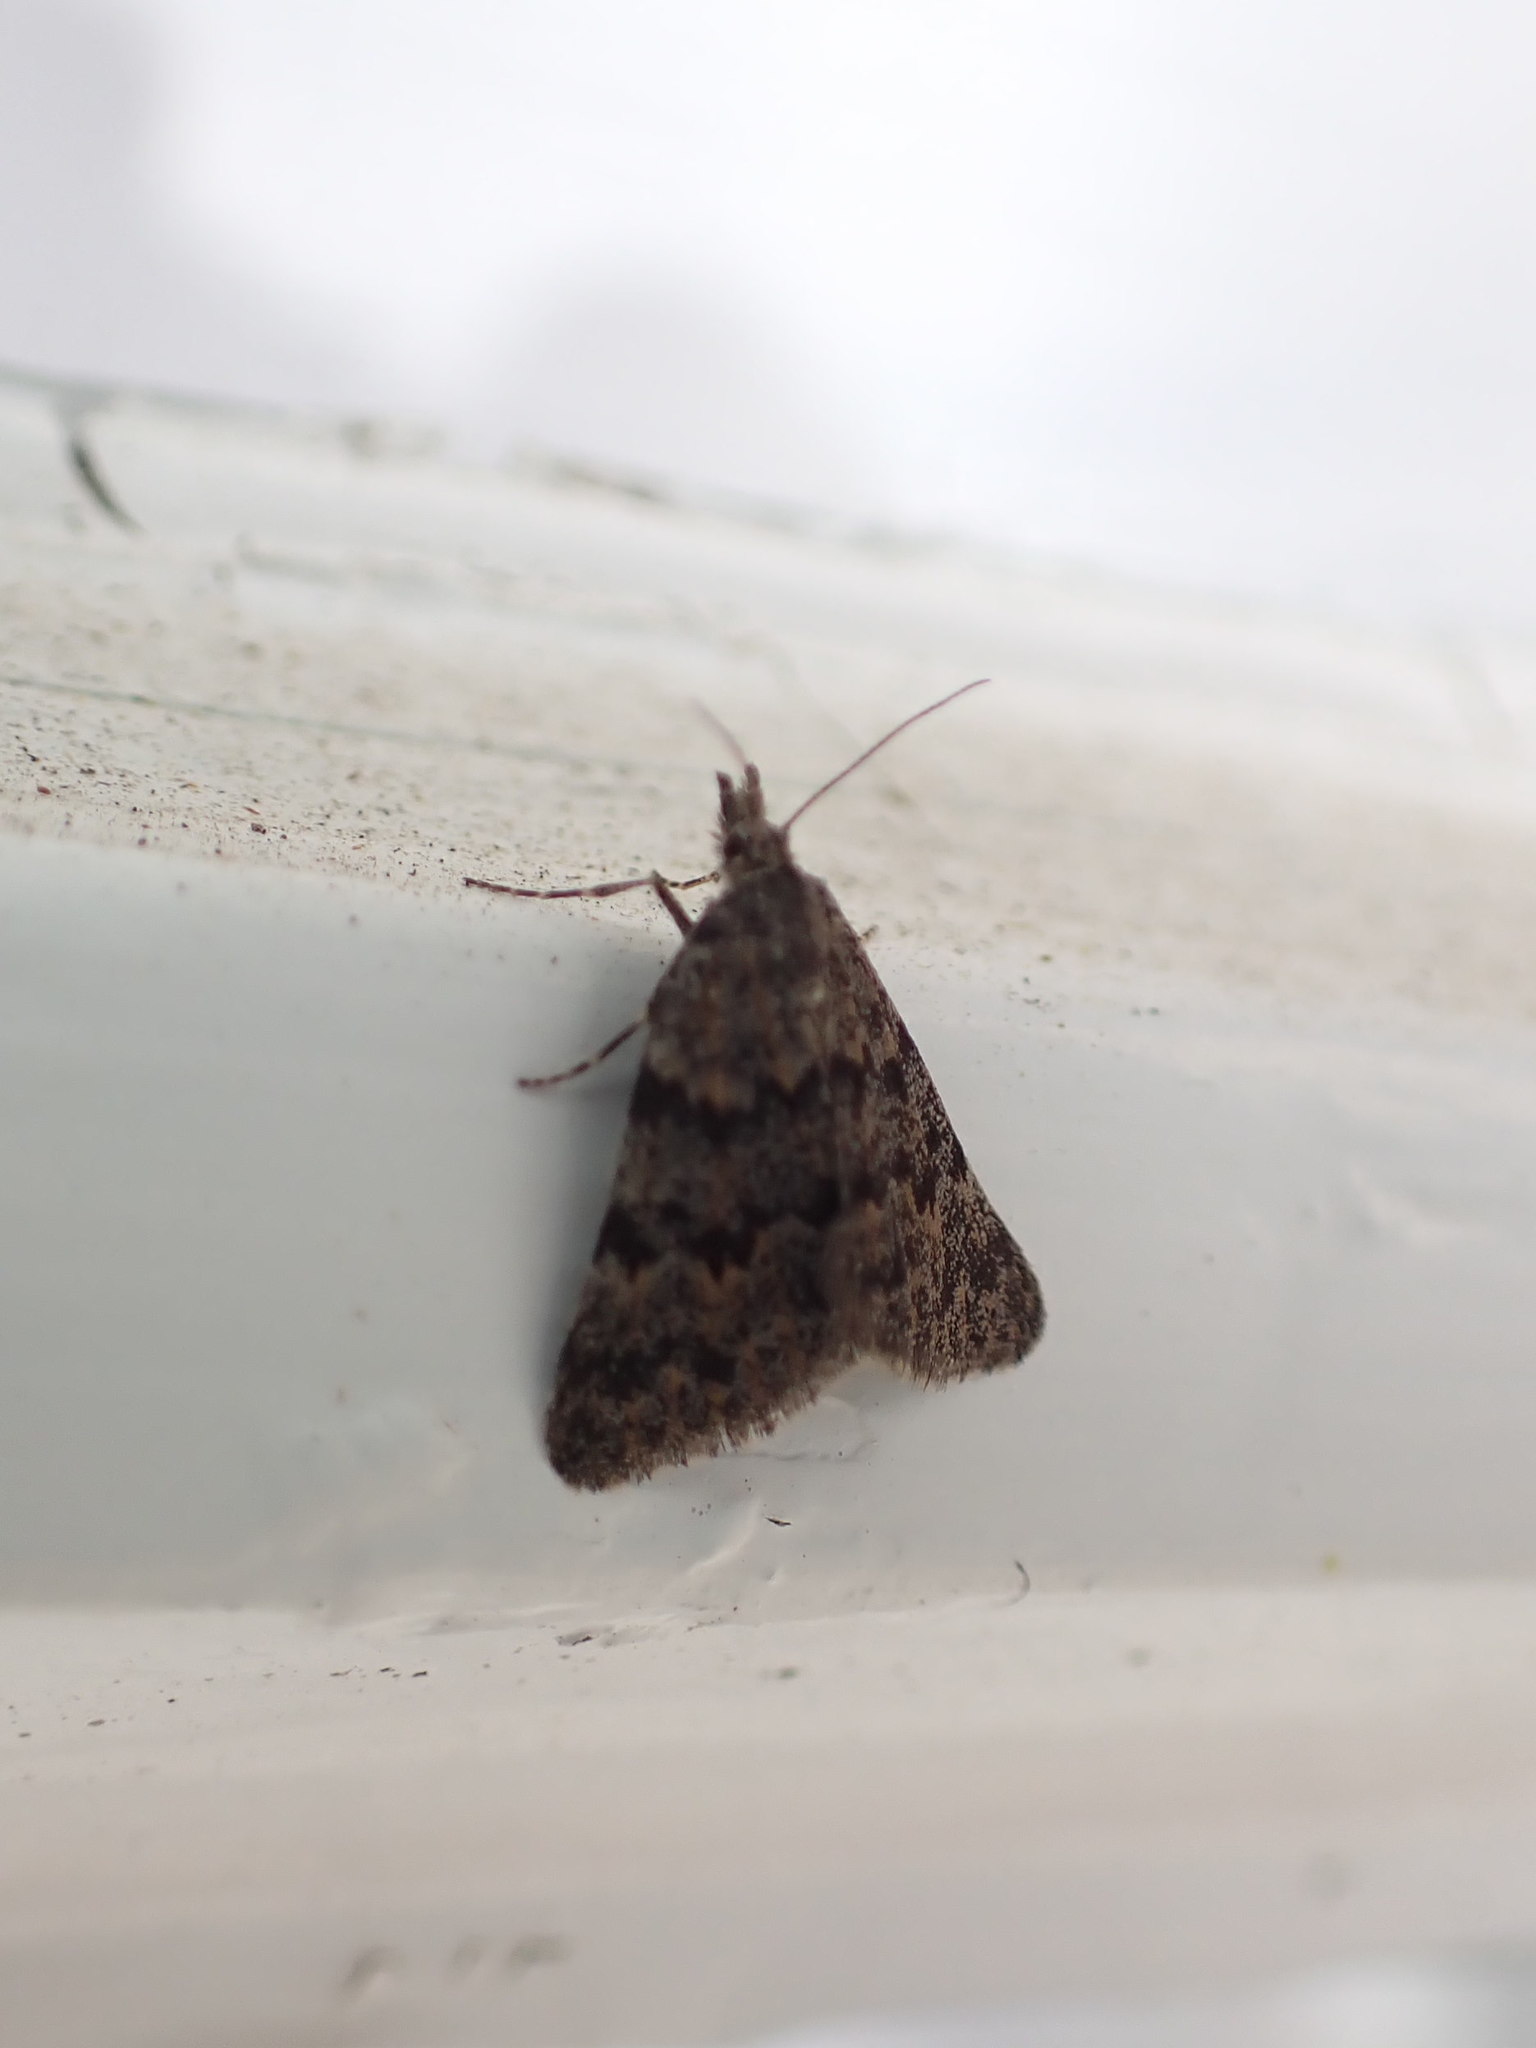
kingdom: Animalia
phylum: Arthropoda
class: Insecta
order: Lepidoptera
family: Geometridae
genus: Dichromodes
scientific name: Dichromodes cynica
